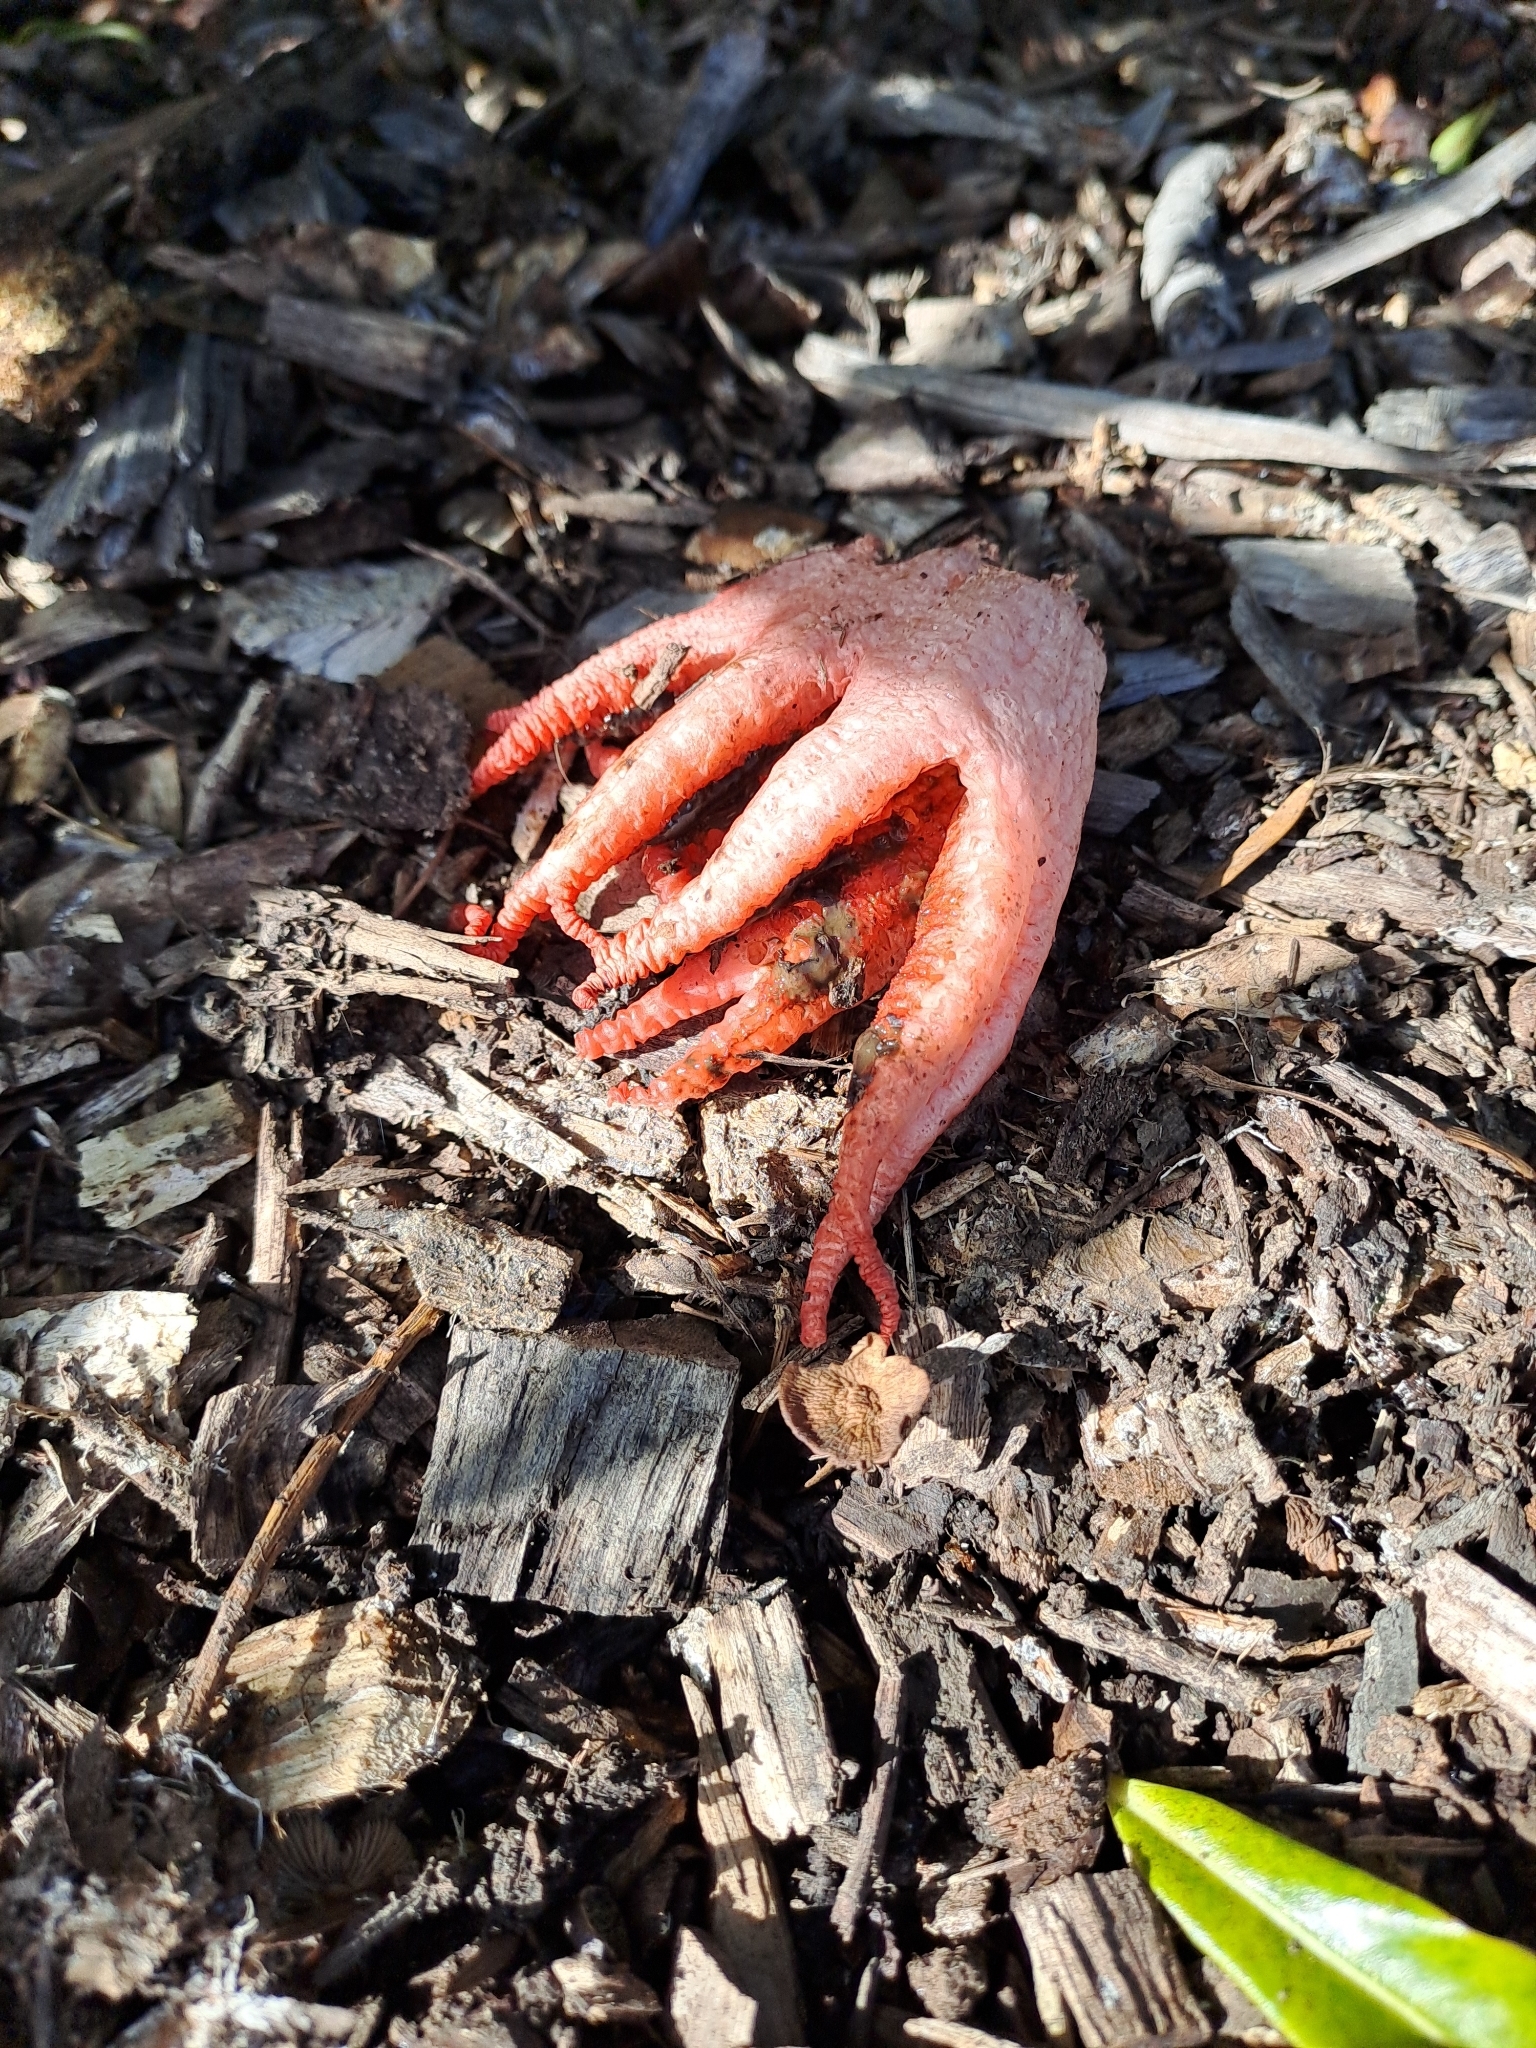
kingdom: Fungi
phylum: Basidiomycota
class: Agaricomycetes
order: Phallales
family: Phallaceae
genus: Clathrus
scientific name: Clathrus archeri
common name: Devil's fingers
